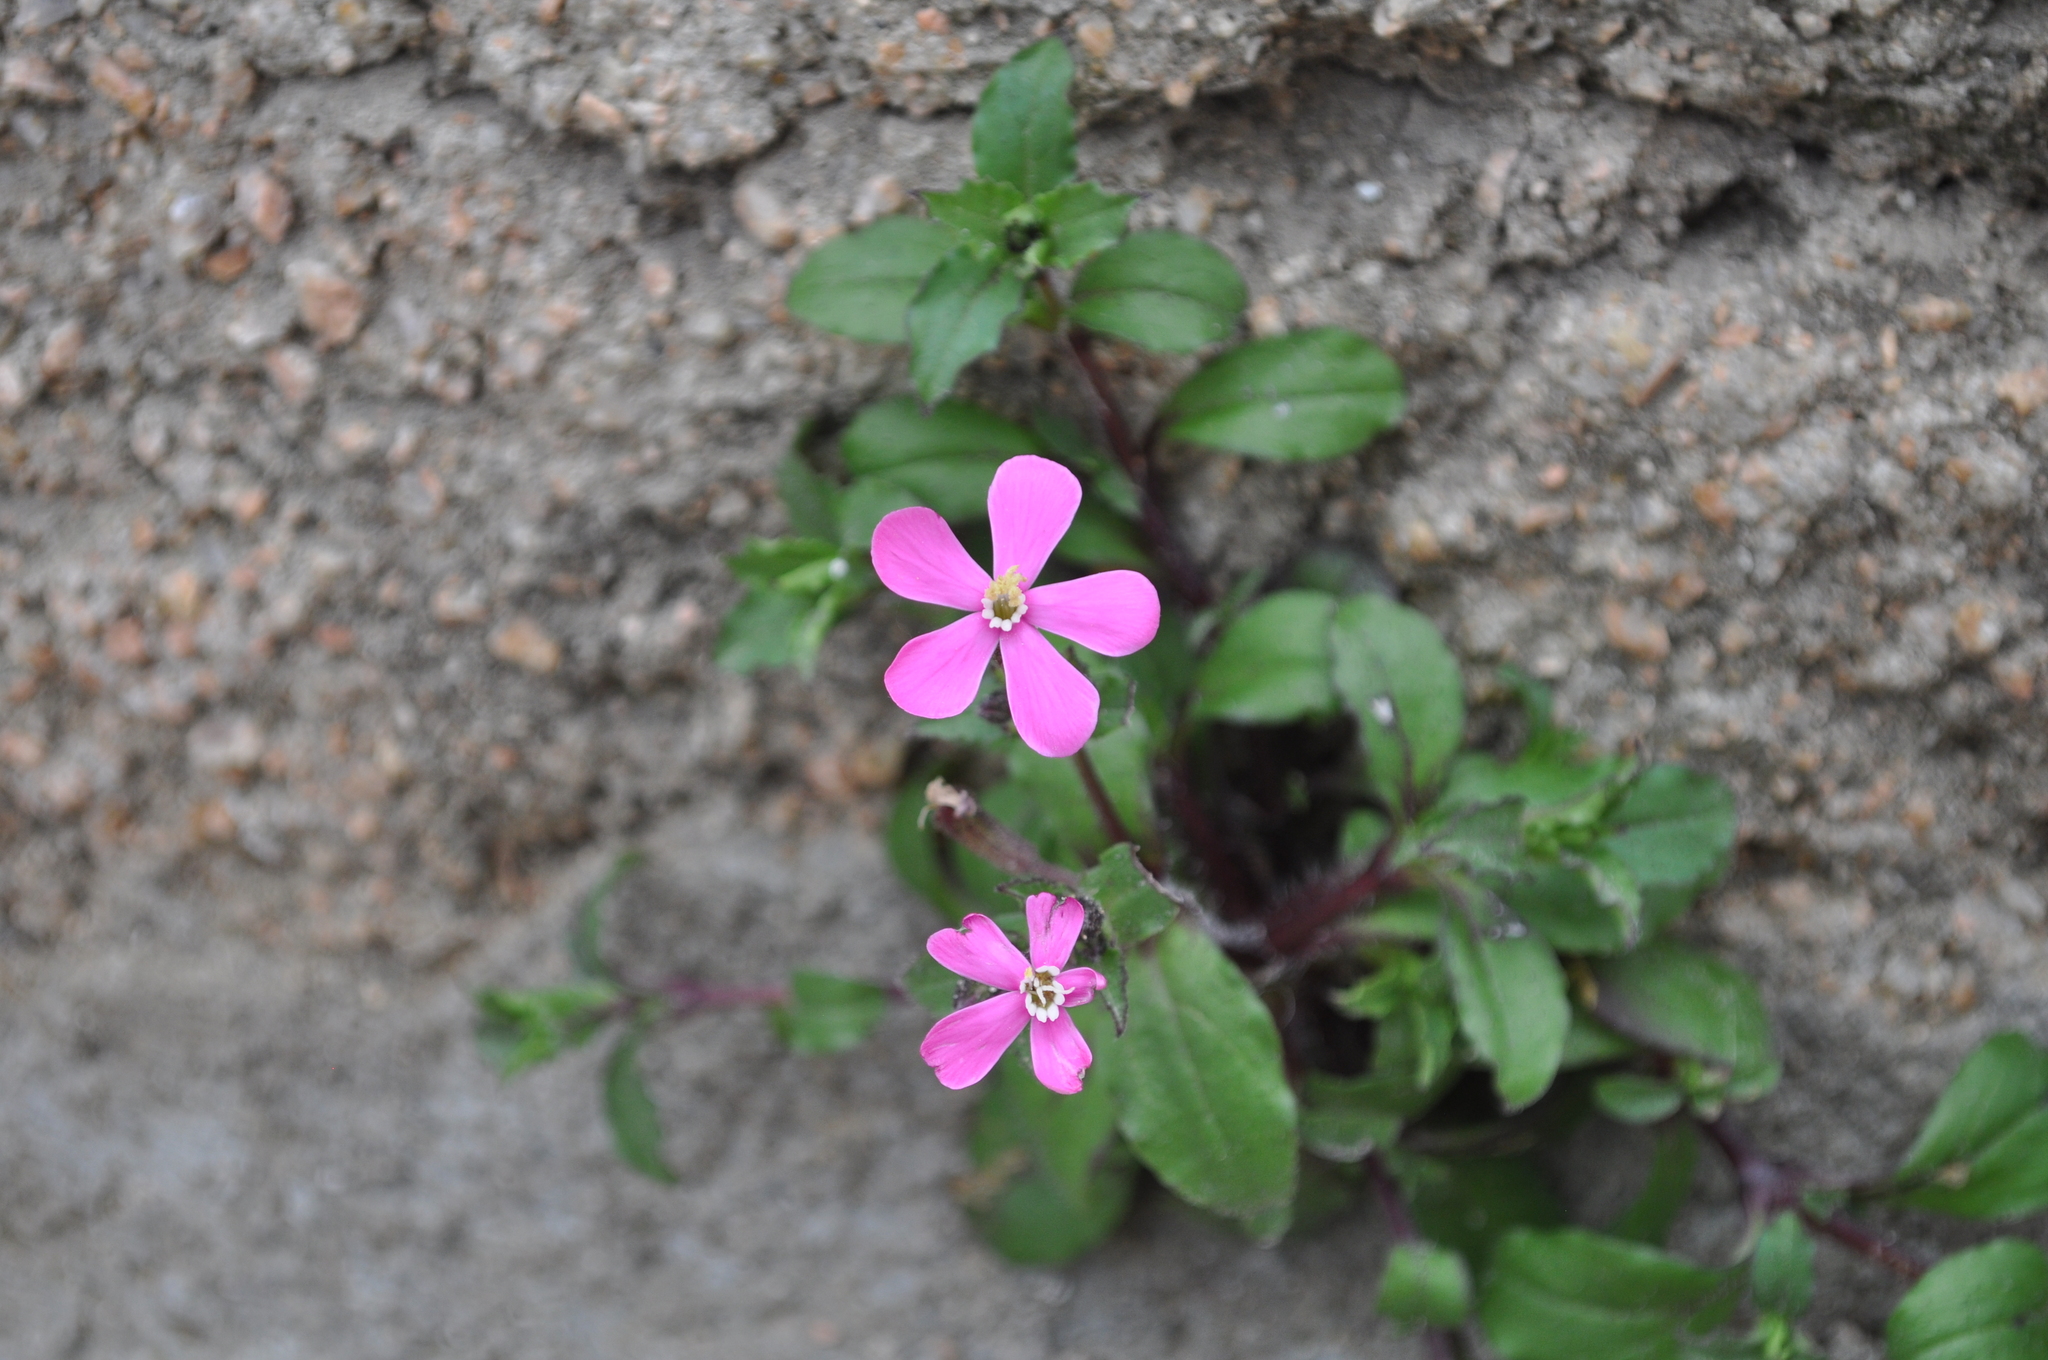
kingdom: Plantae
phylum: Tracheophyta
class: Magnoliopsida
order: Caryophyllales
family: Caryophyllaceae
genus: Silene
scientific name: Silene pseudoatocion
